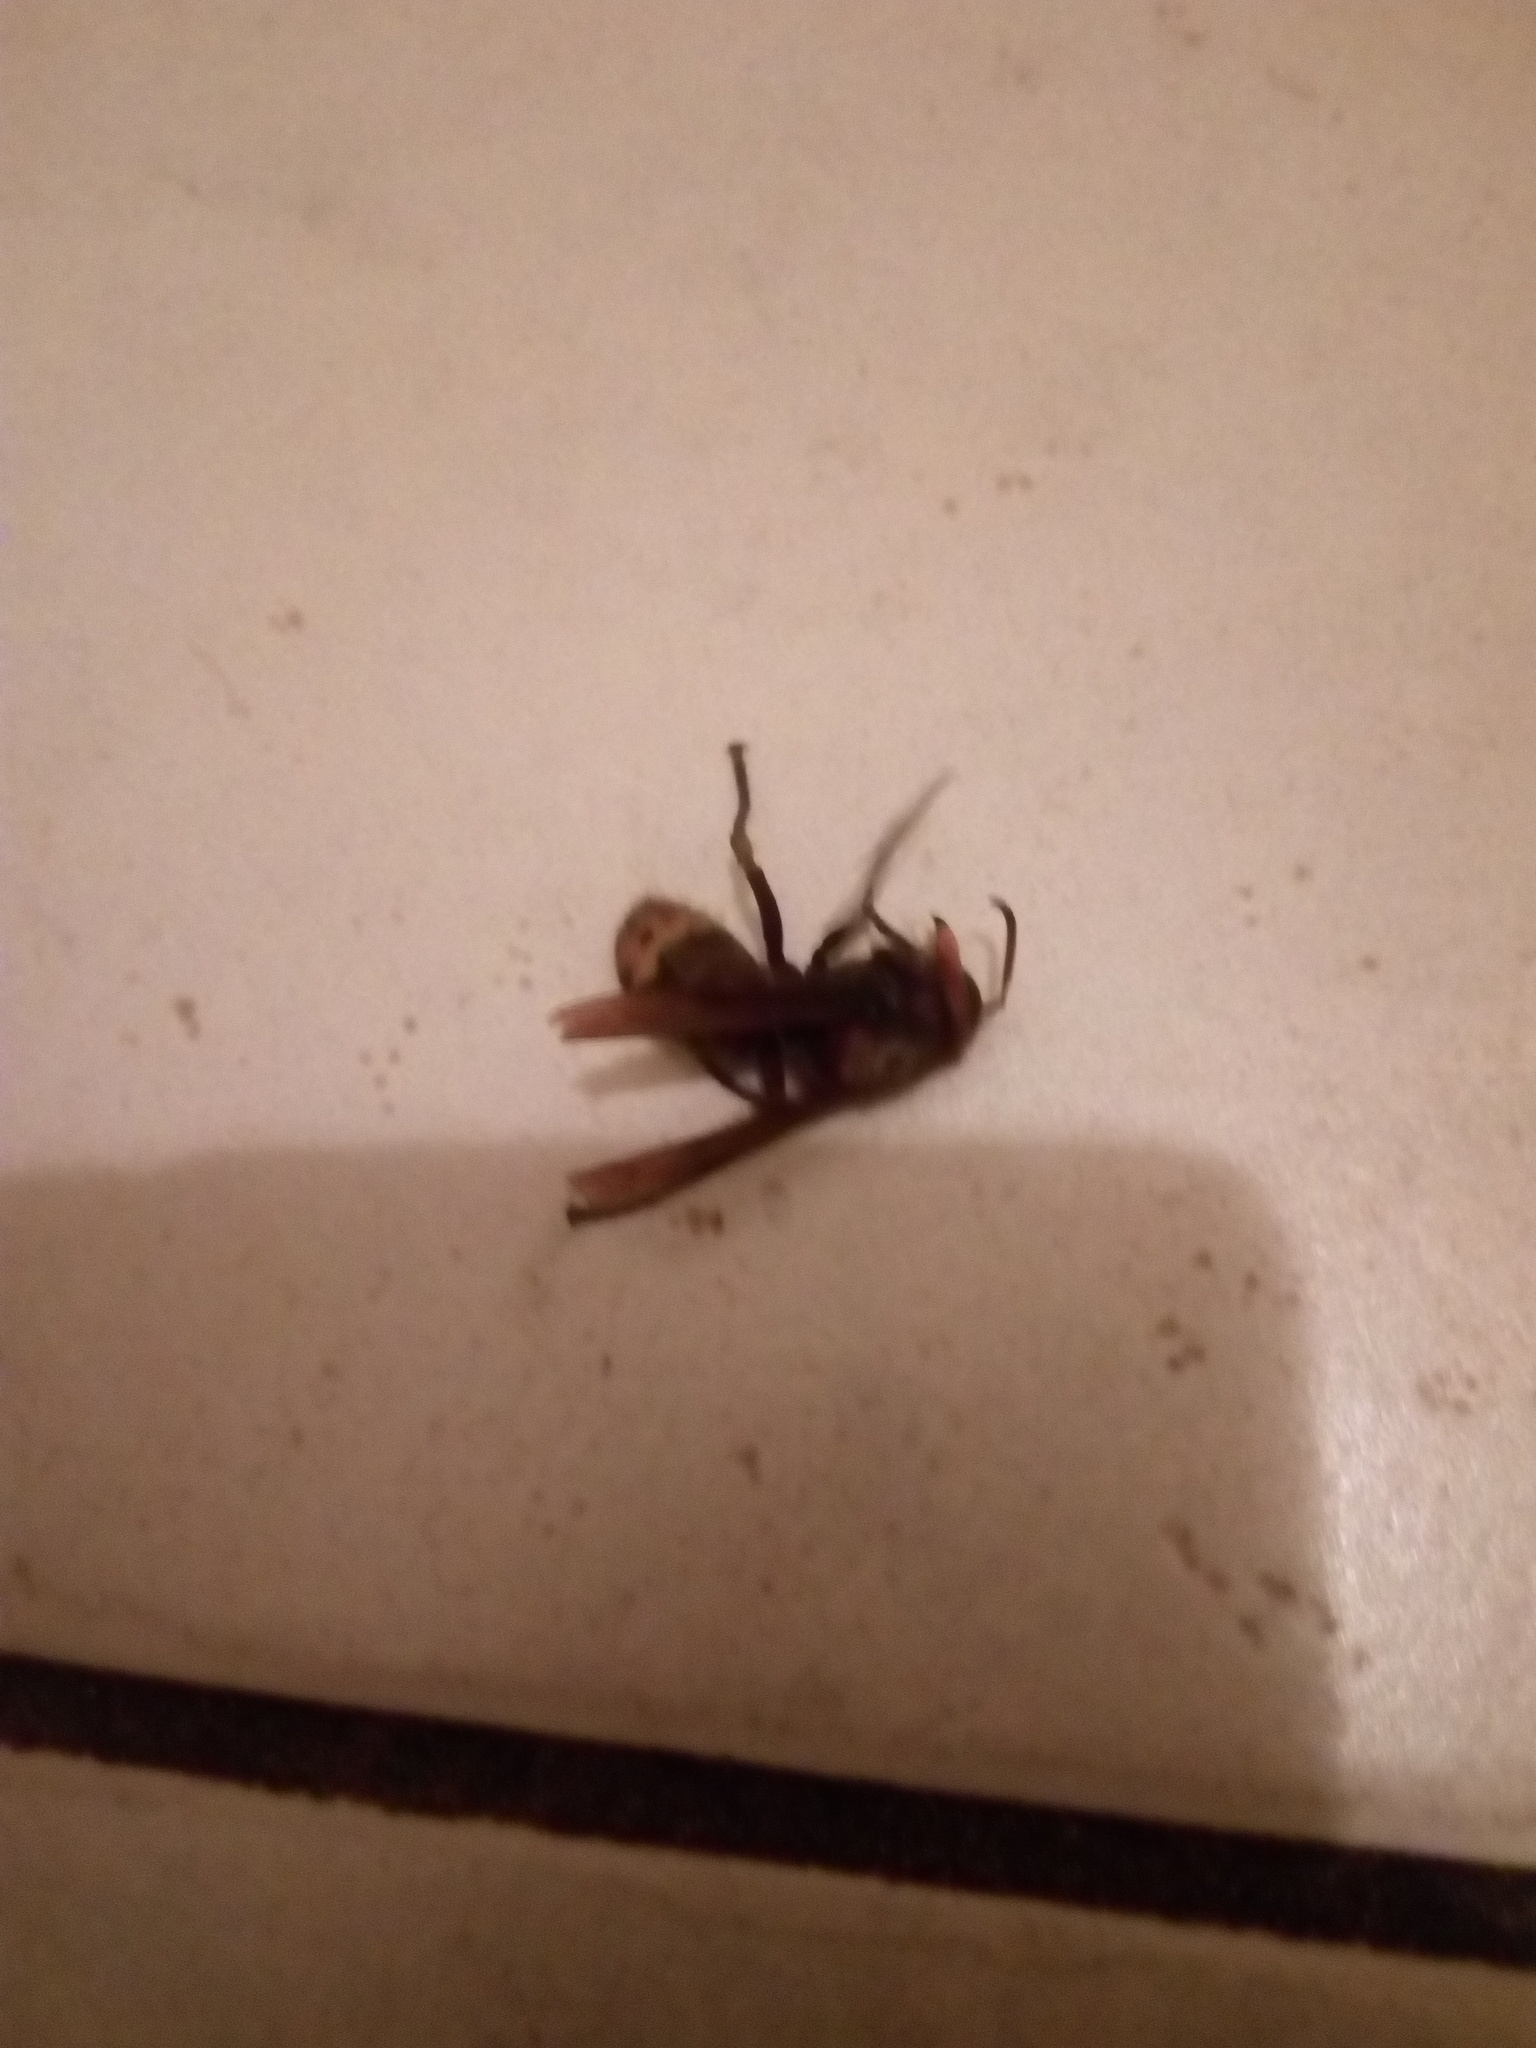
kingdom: Animalia
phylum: Arthropoda
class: Insecta
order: Hymenoptera
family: Vespidae
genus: Vespa
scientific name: Vespa crabro
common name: Hornet
